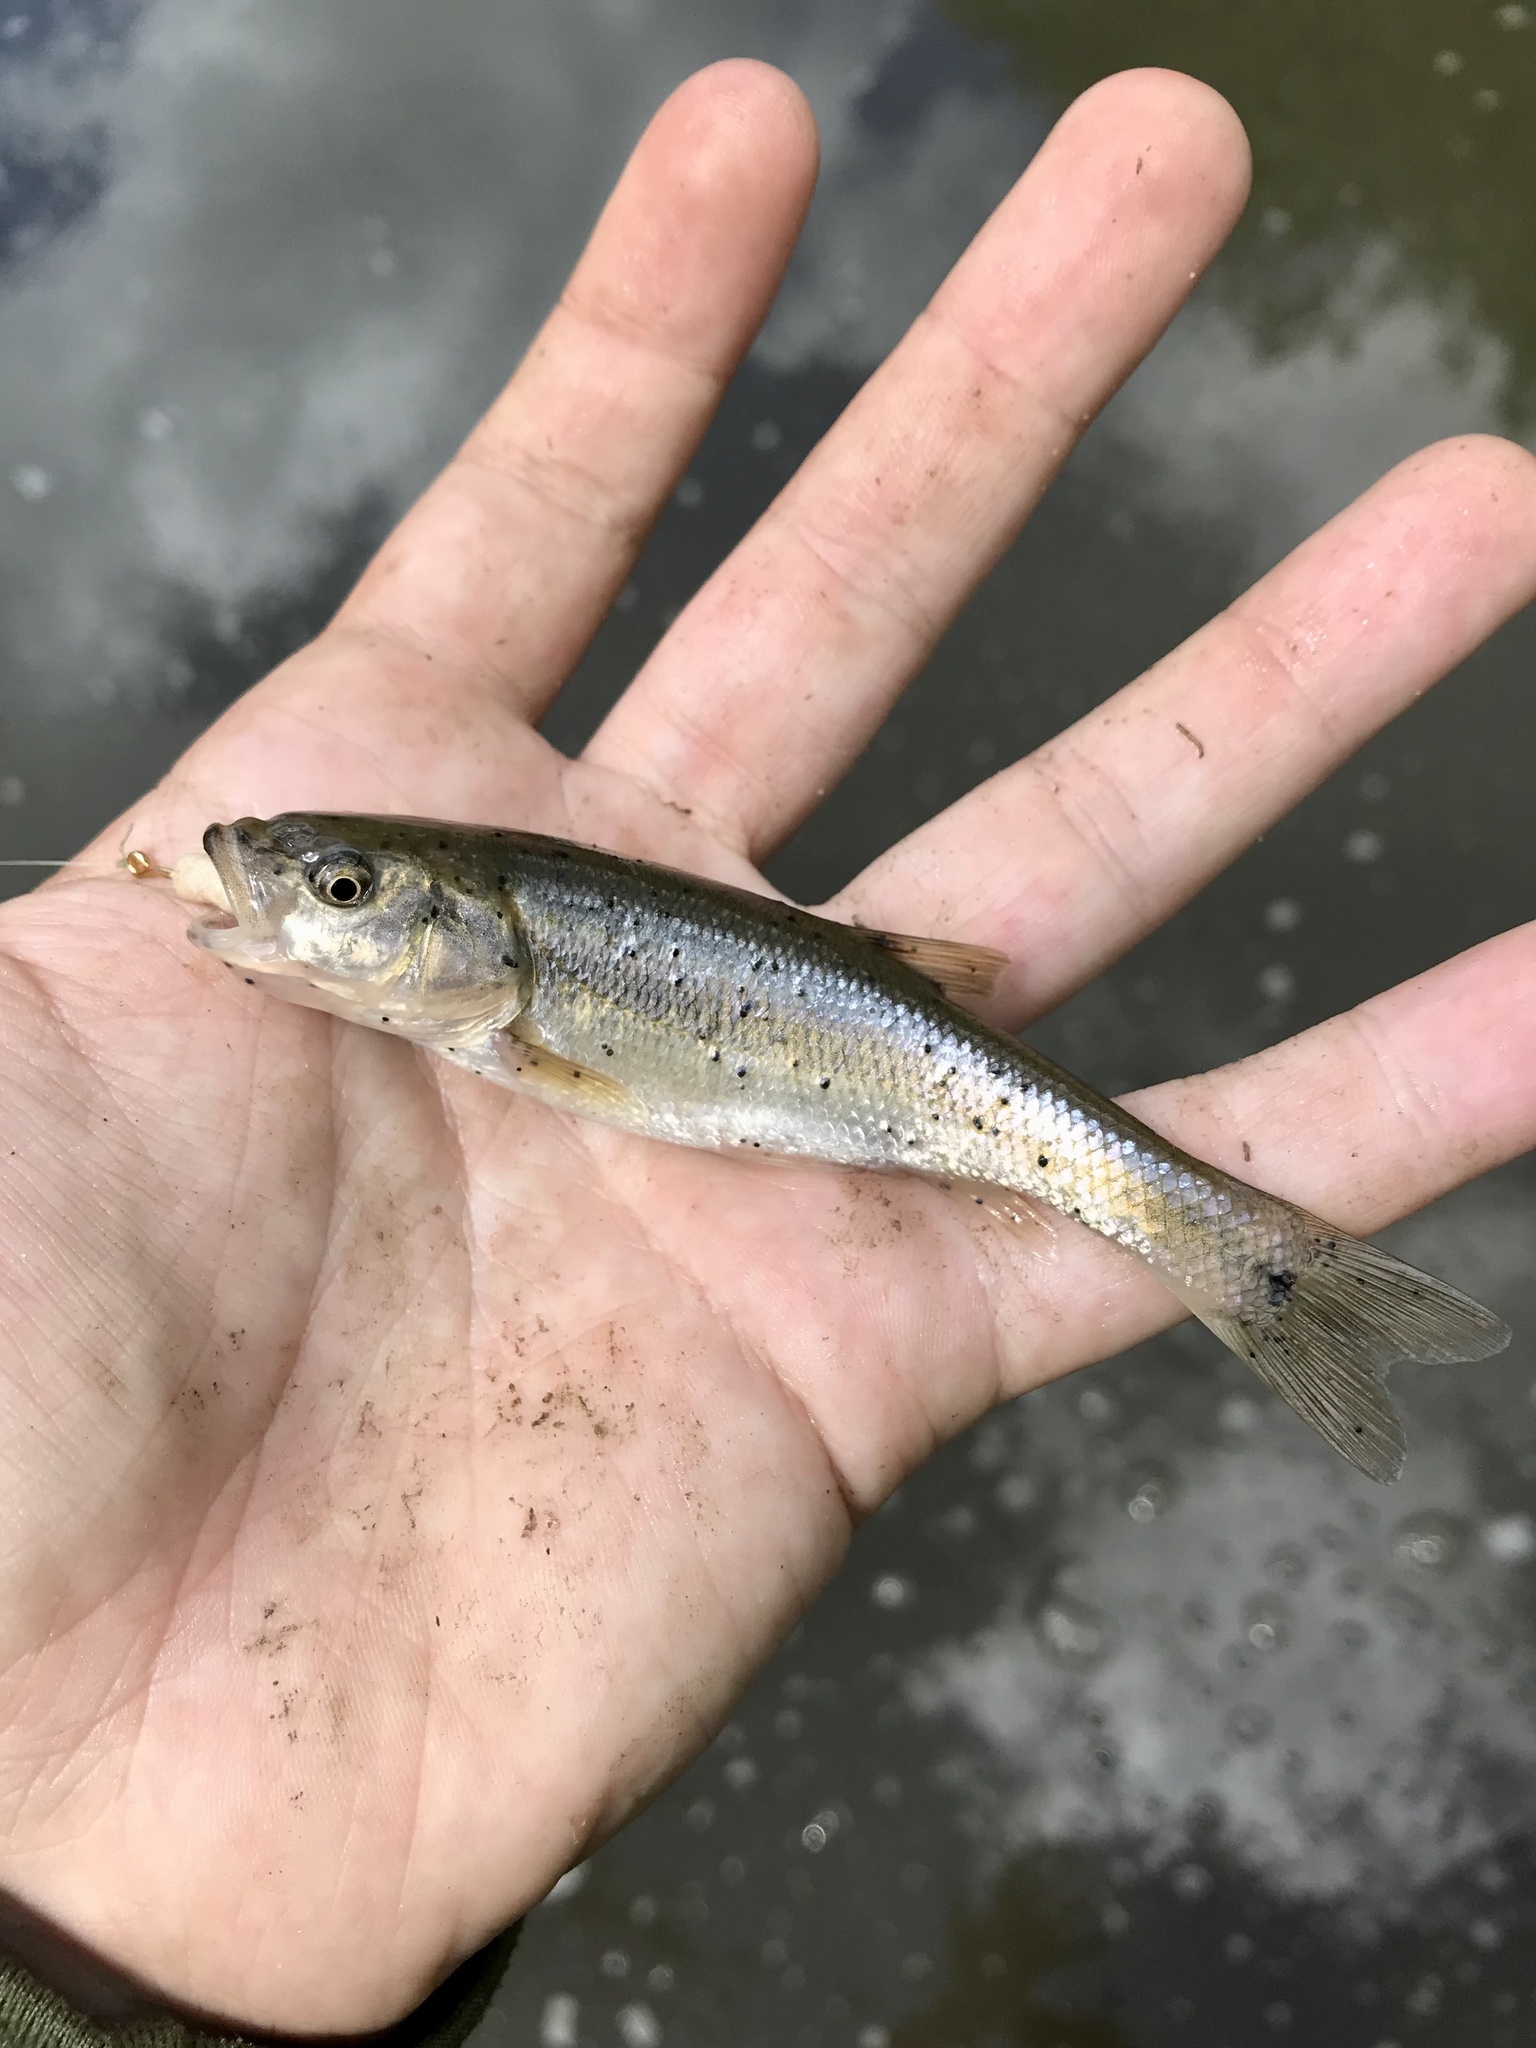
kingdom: Animalia
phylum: Chordata
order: Cypriniformes
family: Cyprinidae
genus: Semotilus
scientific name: Semotilus atromaculatus
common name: Creek chub
